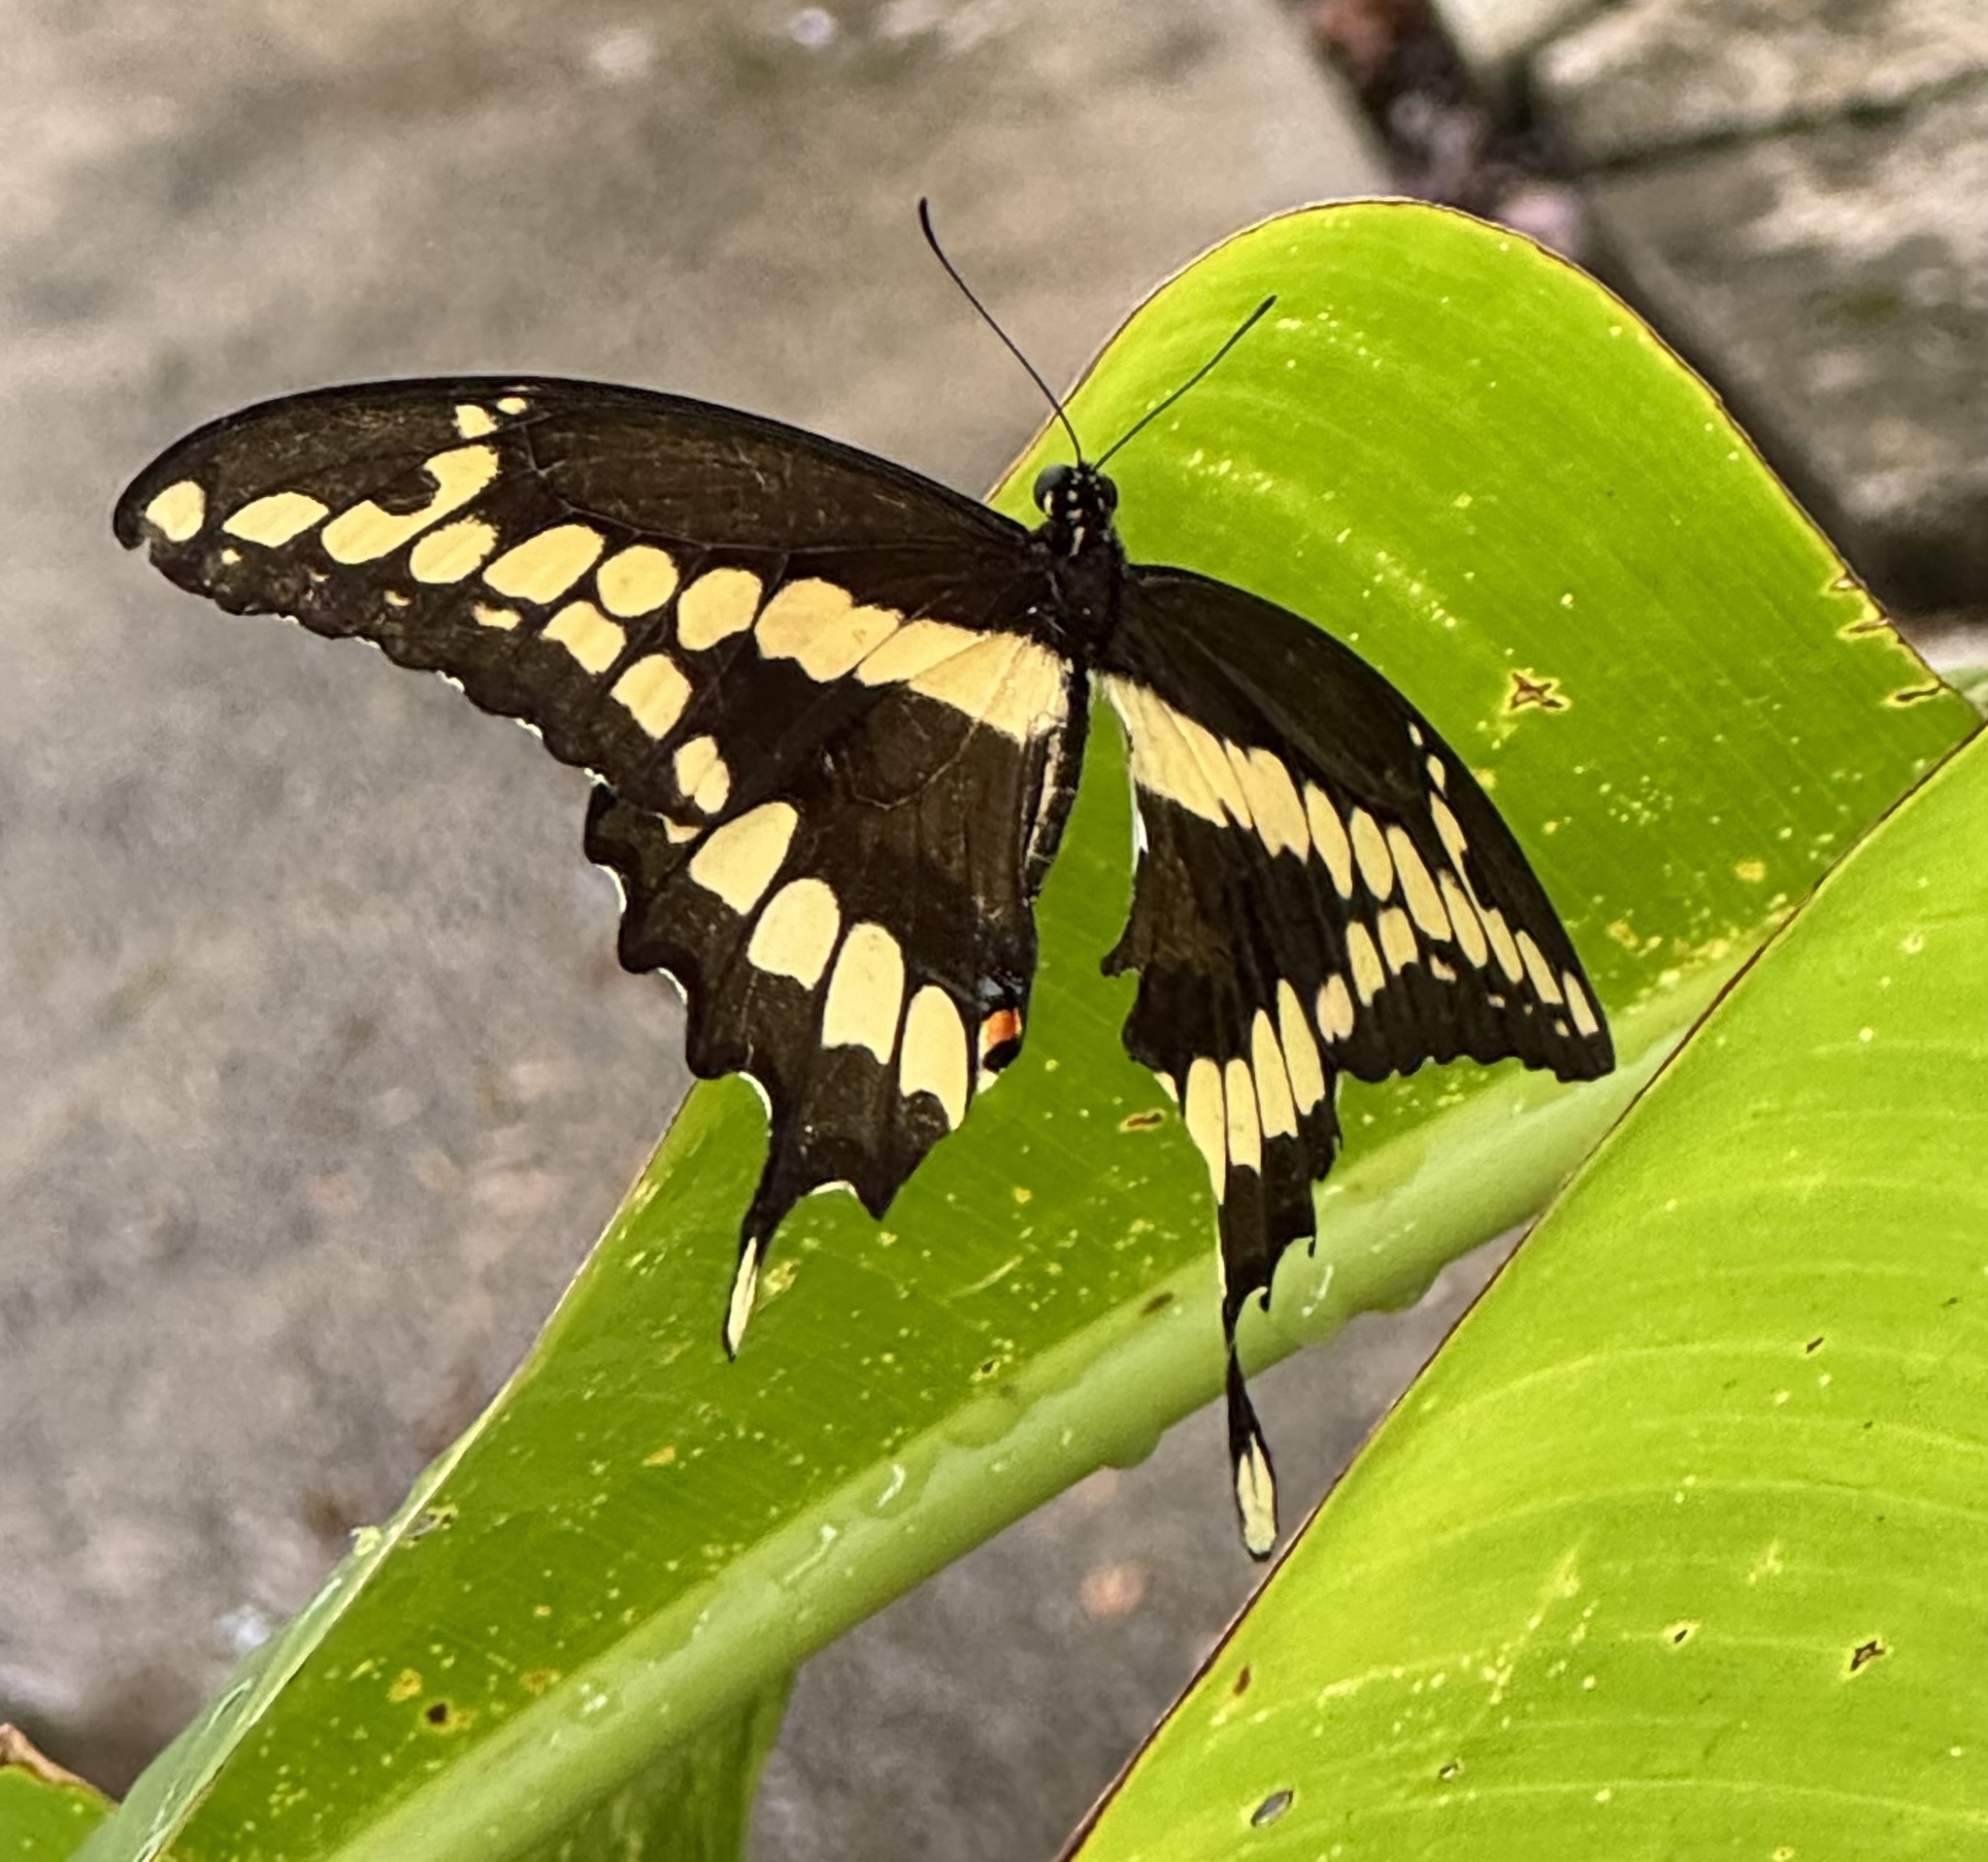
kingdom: Animalia
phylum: Arthropoda
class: Insecta
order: Lepidoptera
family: Papilionidae
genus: Papilio
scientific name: Papilio cresphontes
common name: Giant swallowtail
